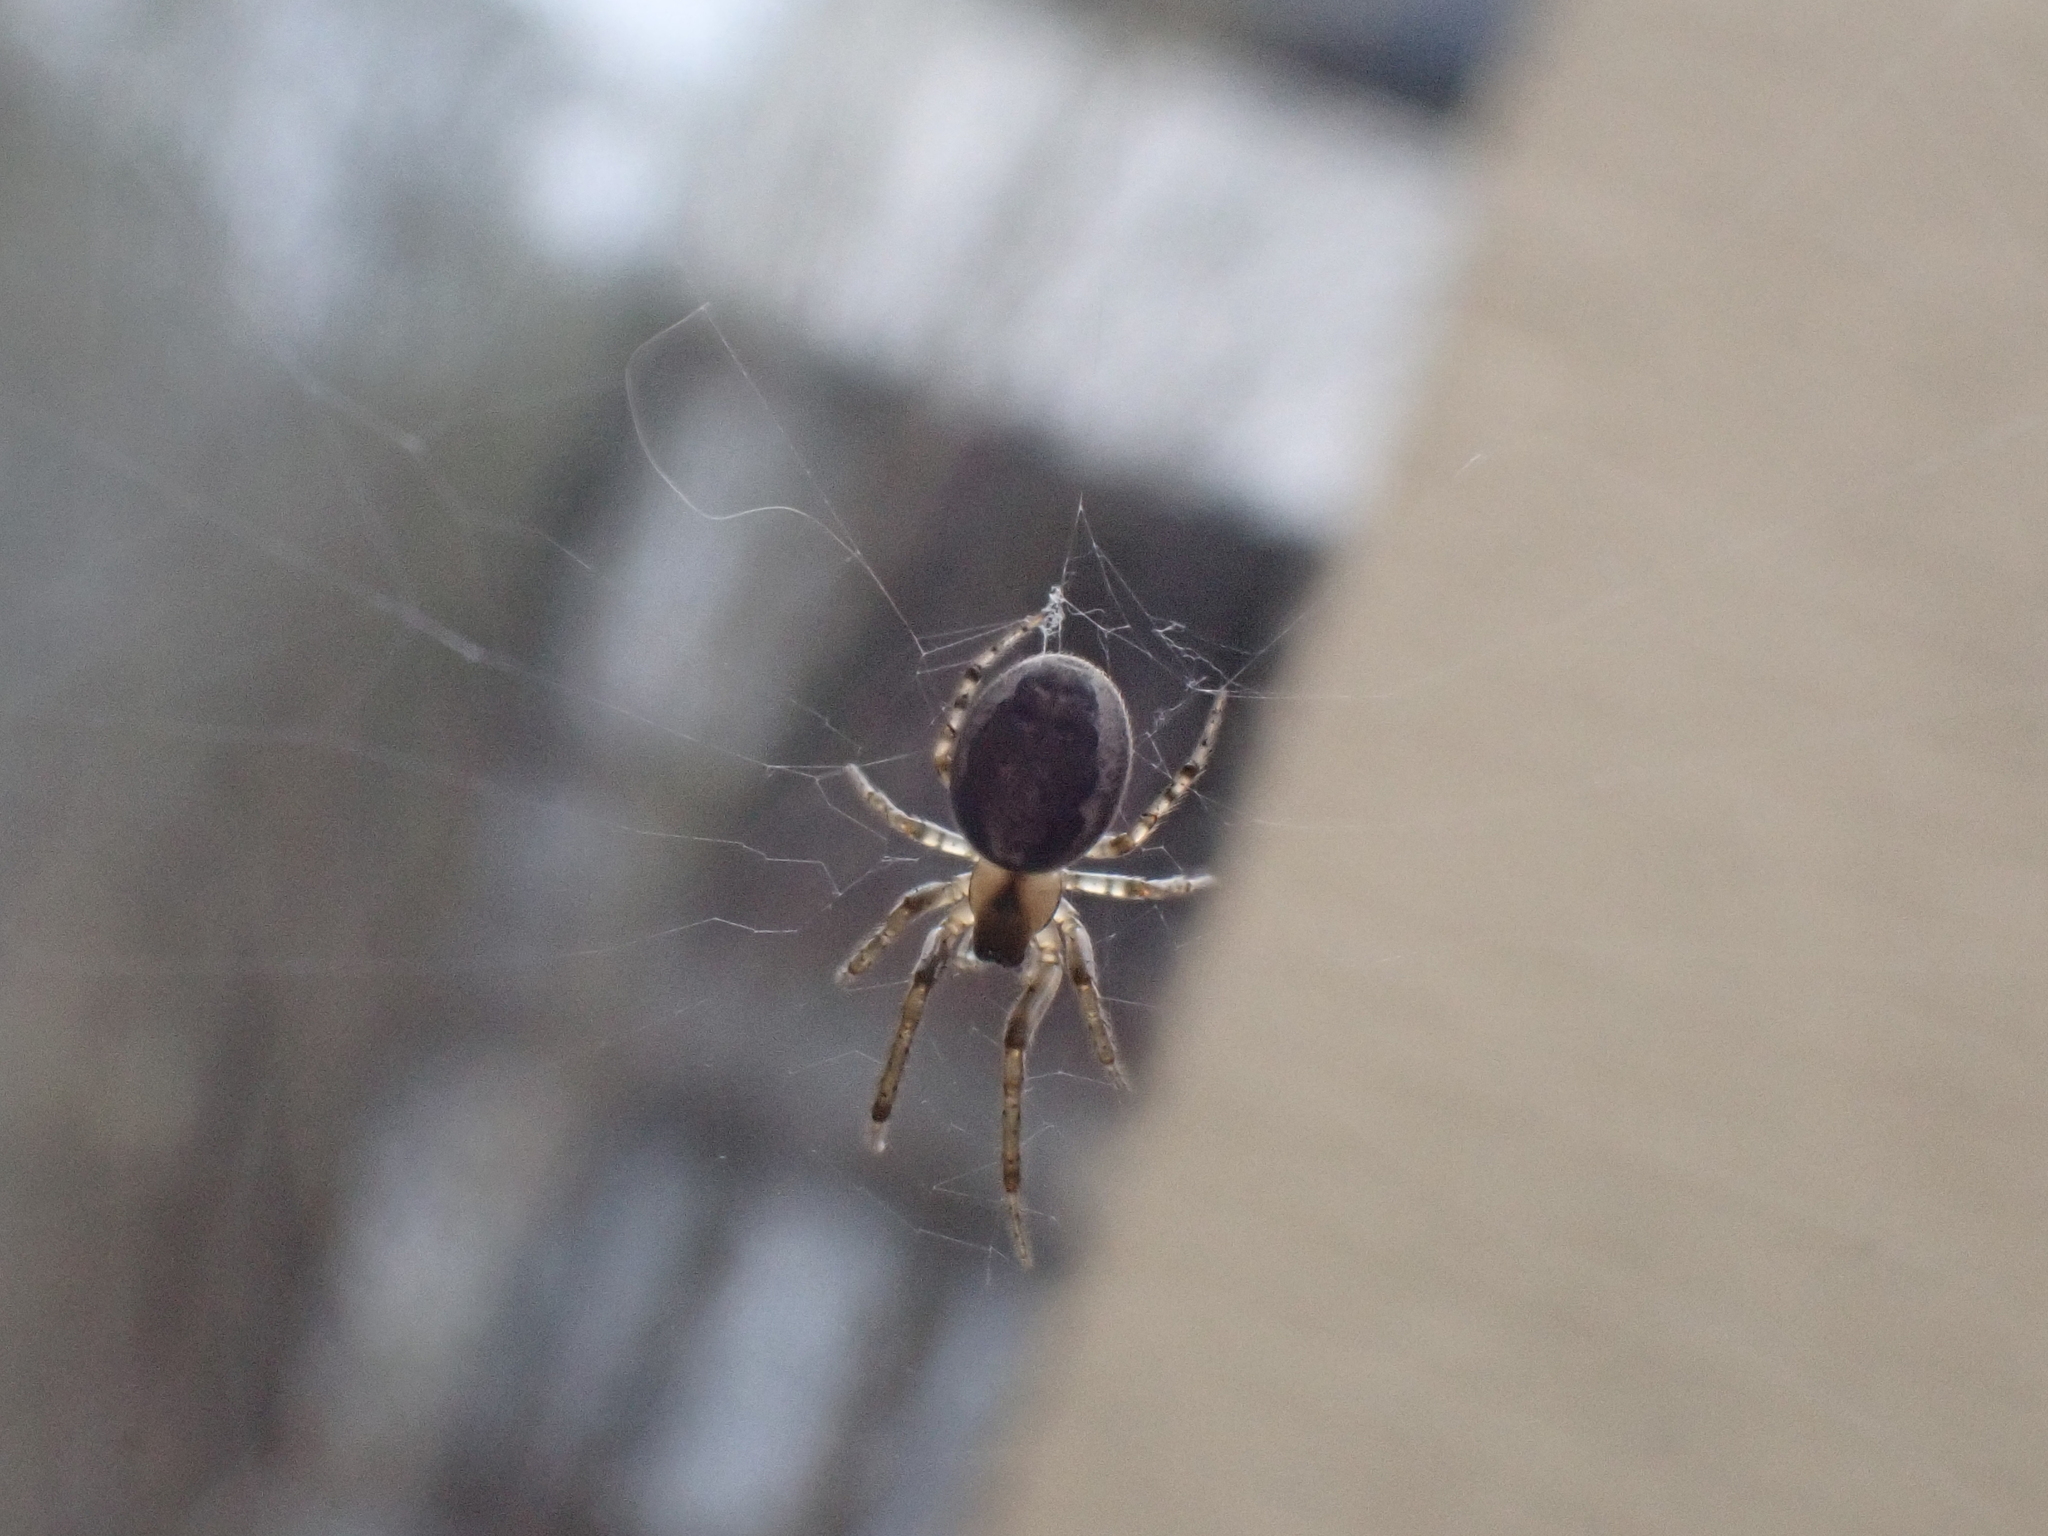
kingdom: Animalia
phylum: Arthropoda
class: Arachnida
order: Araneae
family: Araneidae
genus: Zygiella
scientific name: Zygiella x-notata
